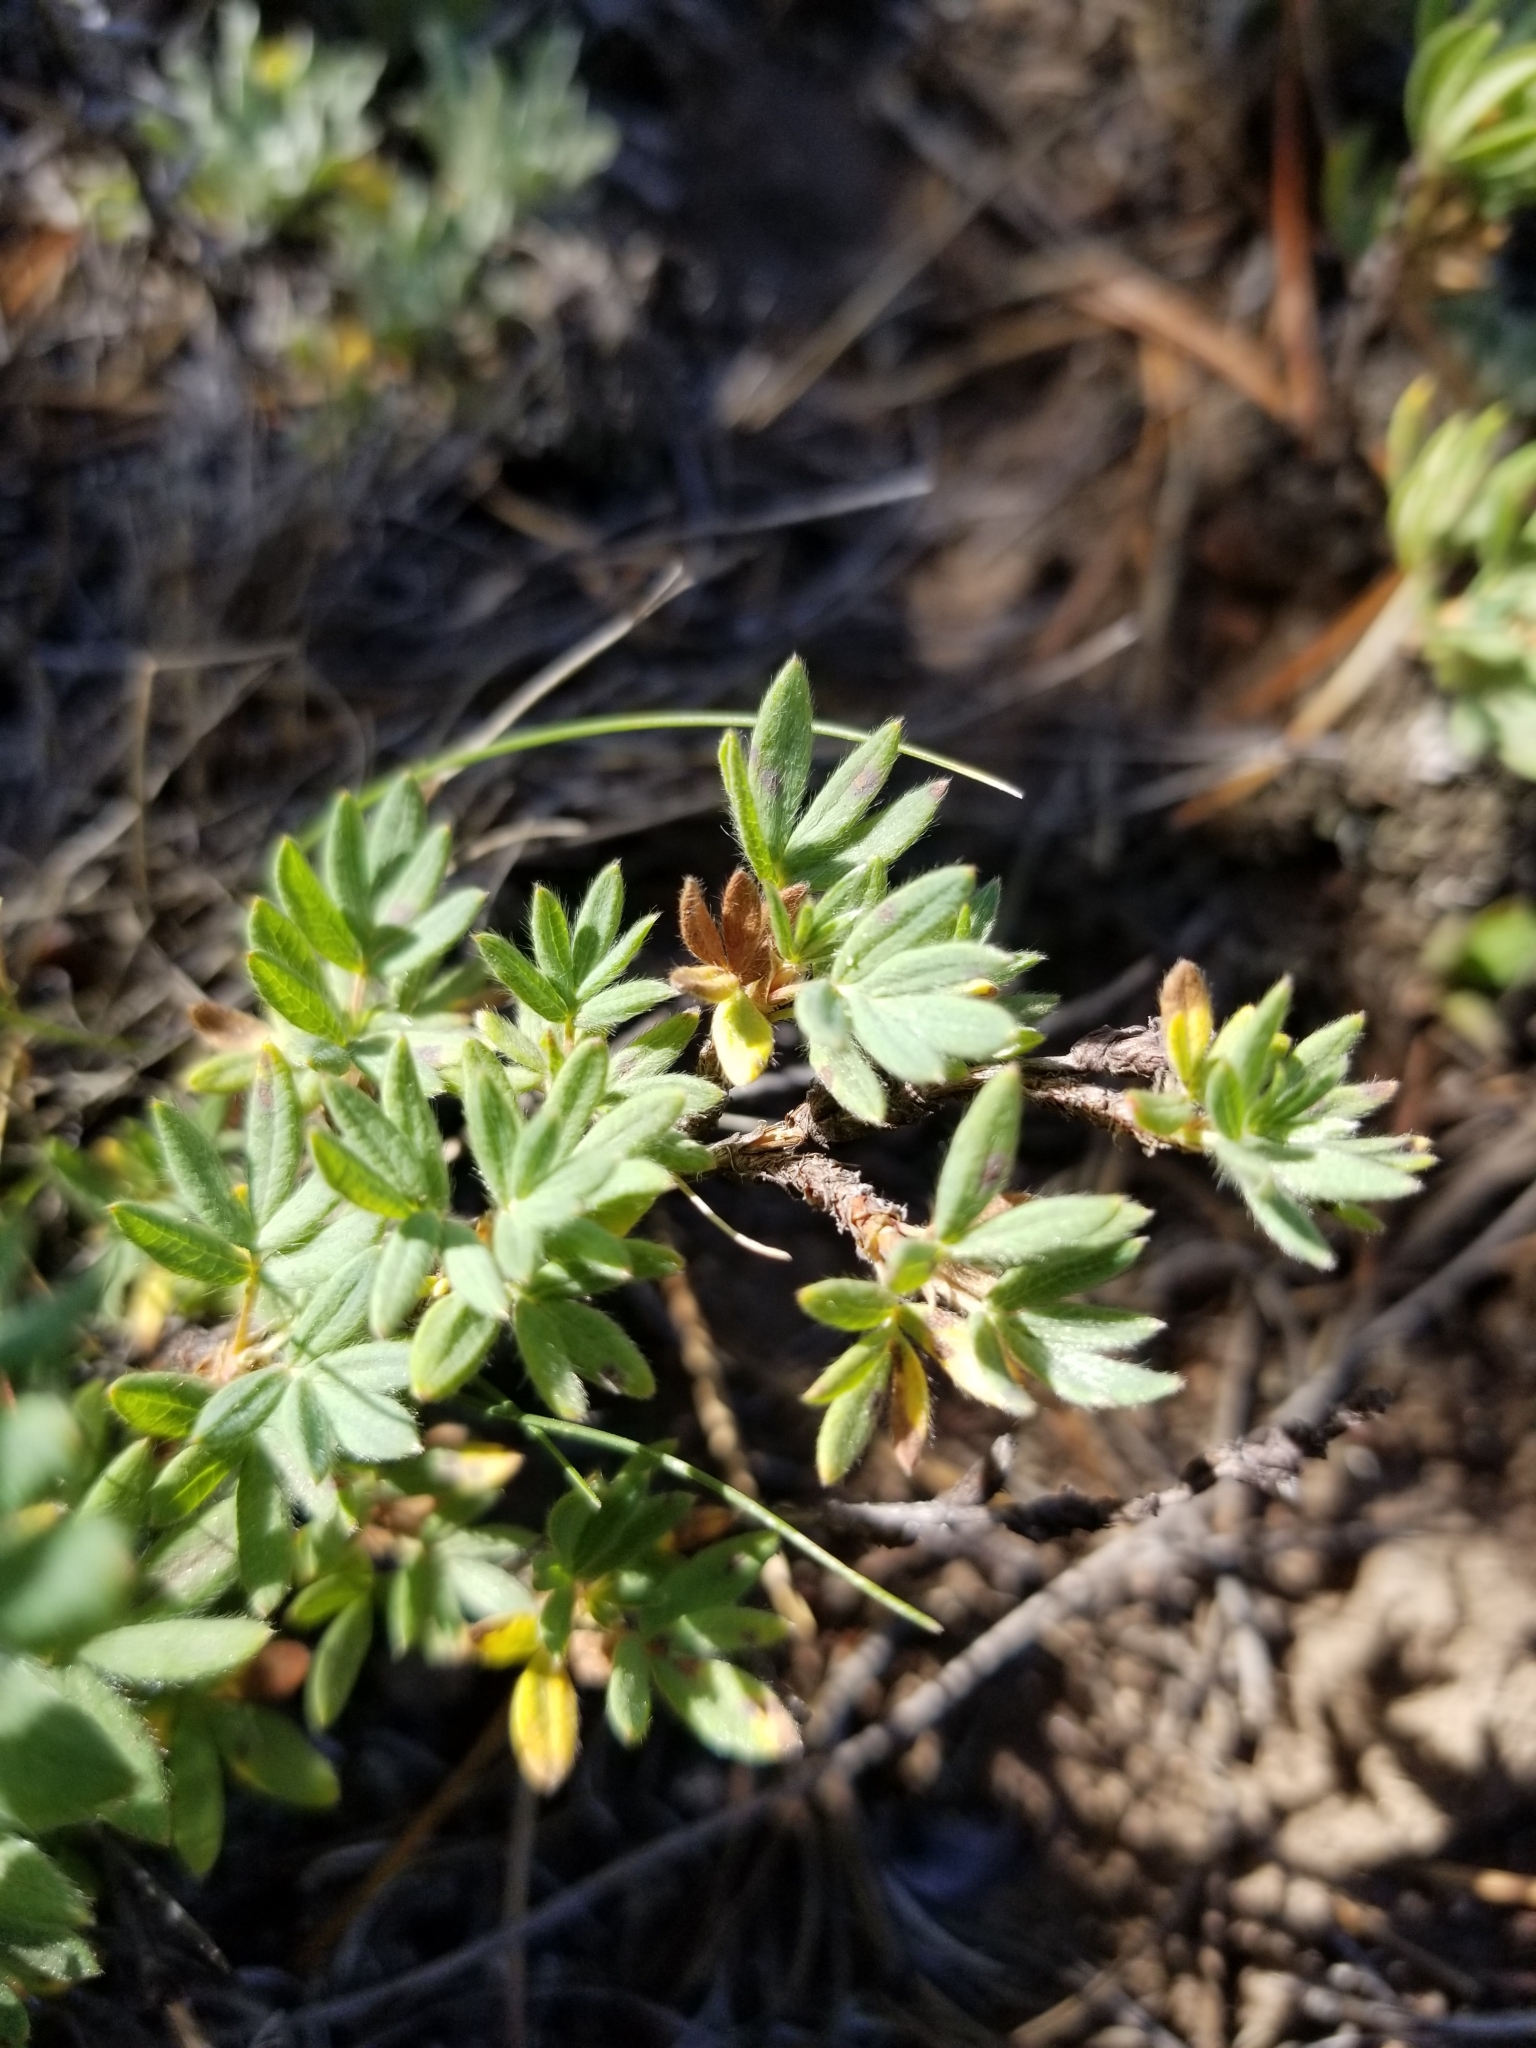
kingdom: Plantae
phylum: Tracheophyta
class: Magnoliopsida
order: Rosales
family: Rosaceae
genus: Dasiphora
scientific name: Dasiphora fruticosa
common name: Shrubby cinquefoil
